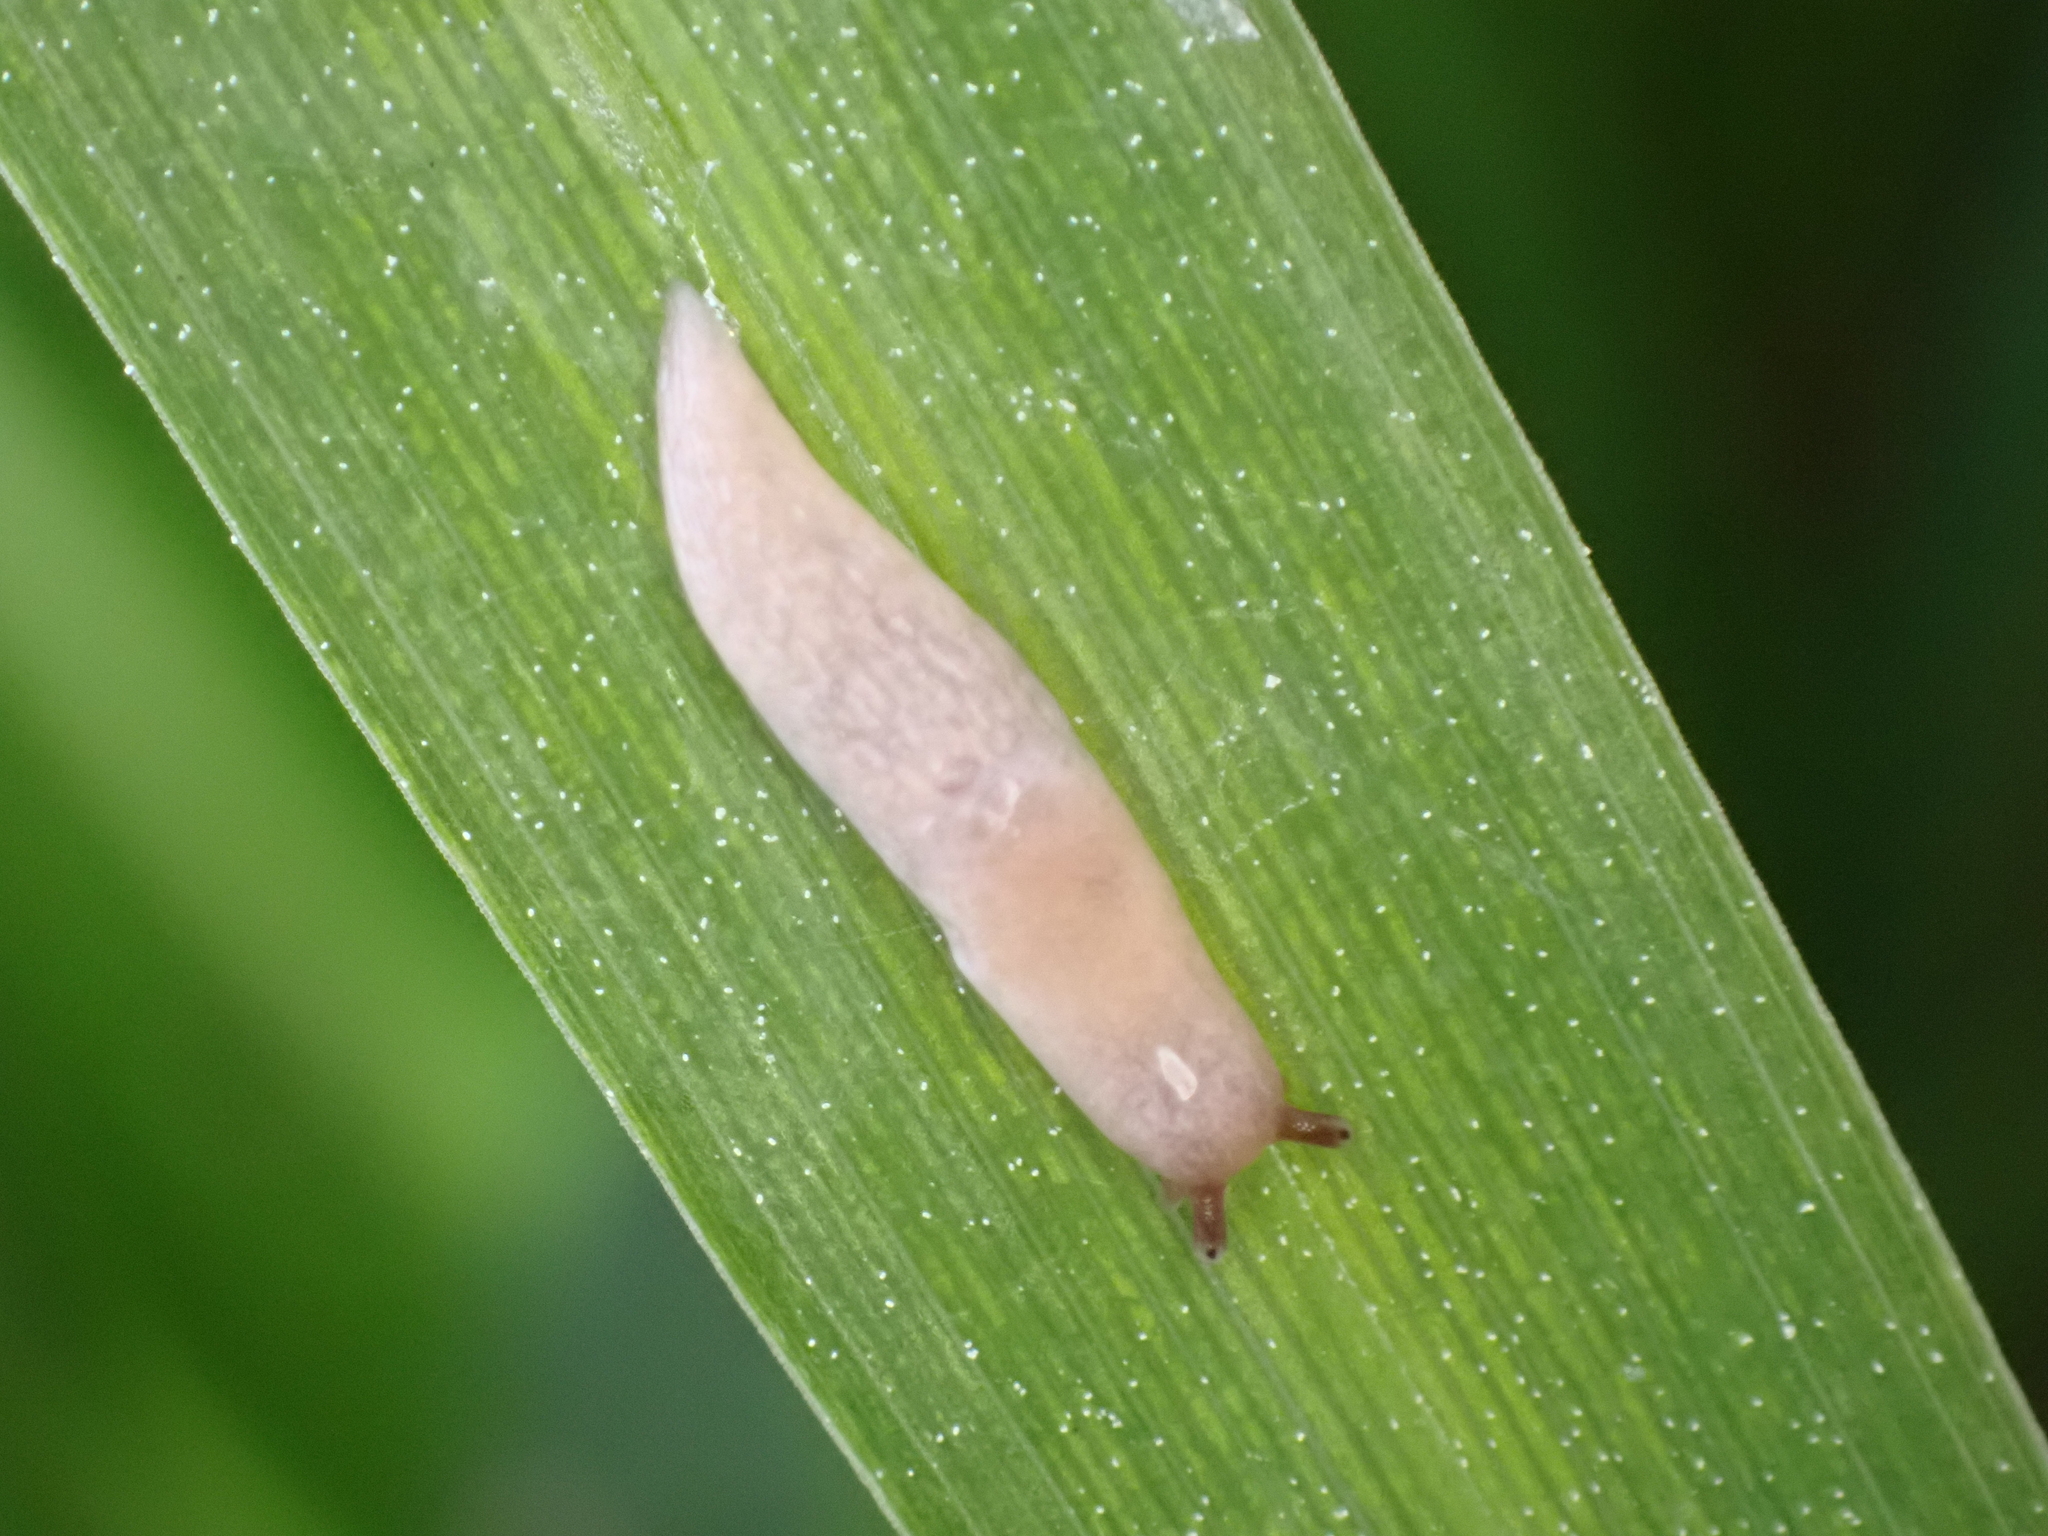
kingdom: Animalia
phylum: Mollusca
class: Gastropoda
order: Stylommatophora
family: Agriolimacidae
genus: Deroceras
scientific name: Deroceras reticulatum
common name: Gray field slug
